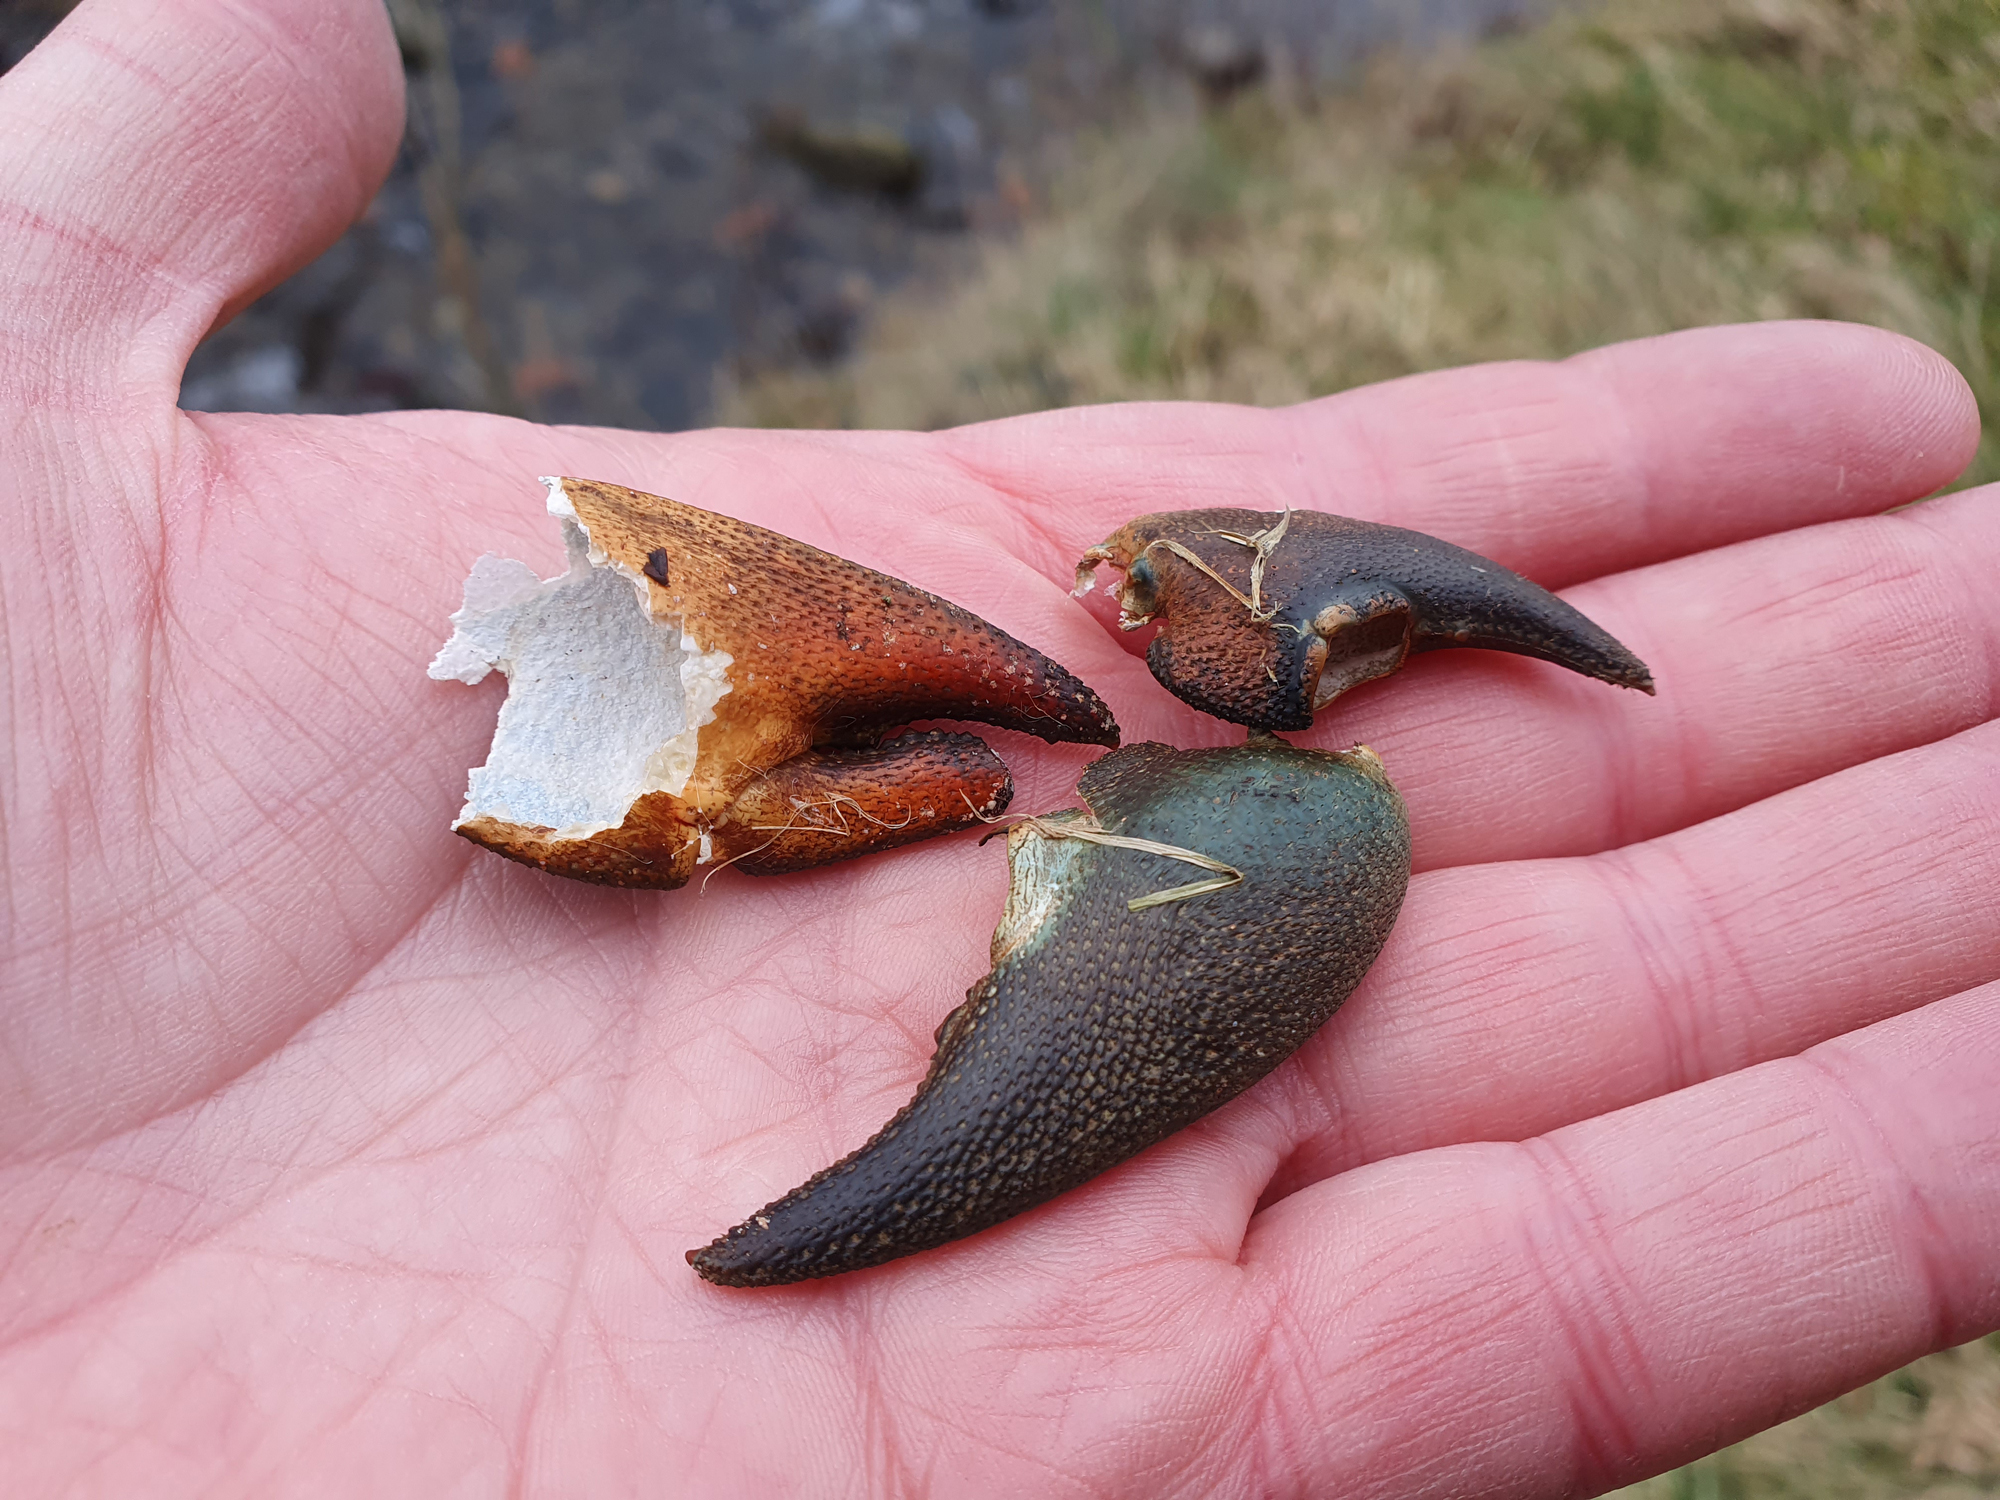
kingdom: Animalia
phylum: Arthropoda
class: Malacostraca
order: Decapoda
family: Astacidae
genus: Pacifastacus
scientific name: Pacifastacus leniusculus
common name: Signal crayfish
